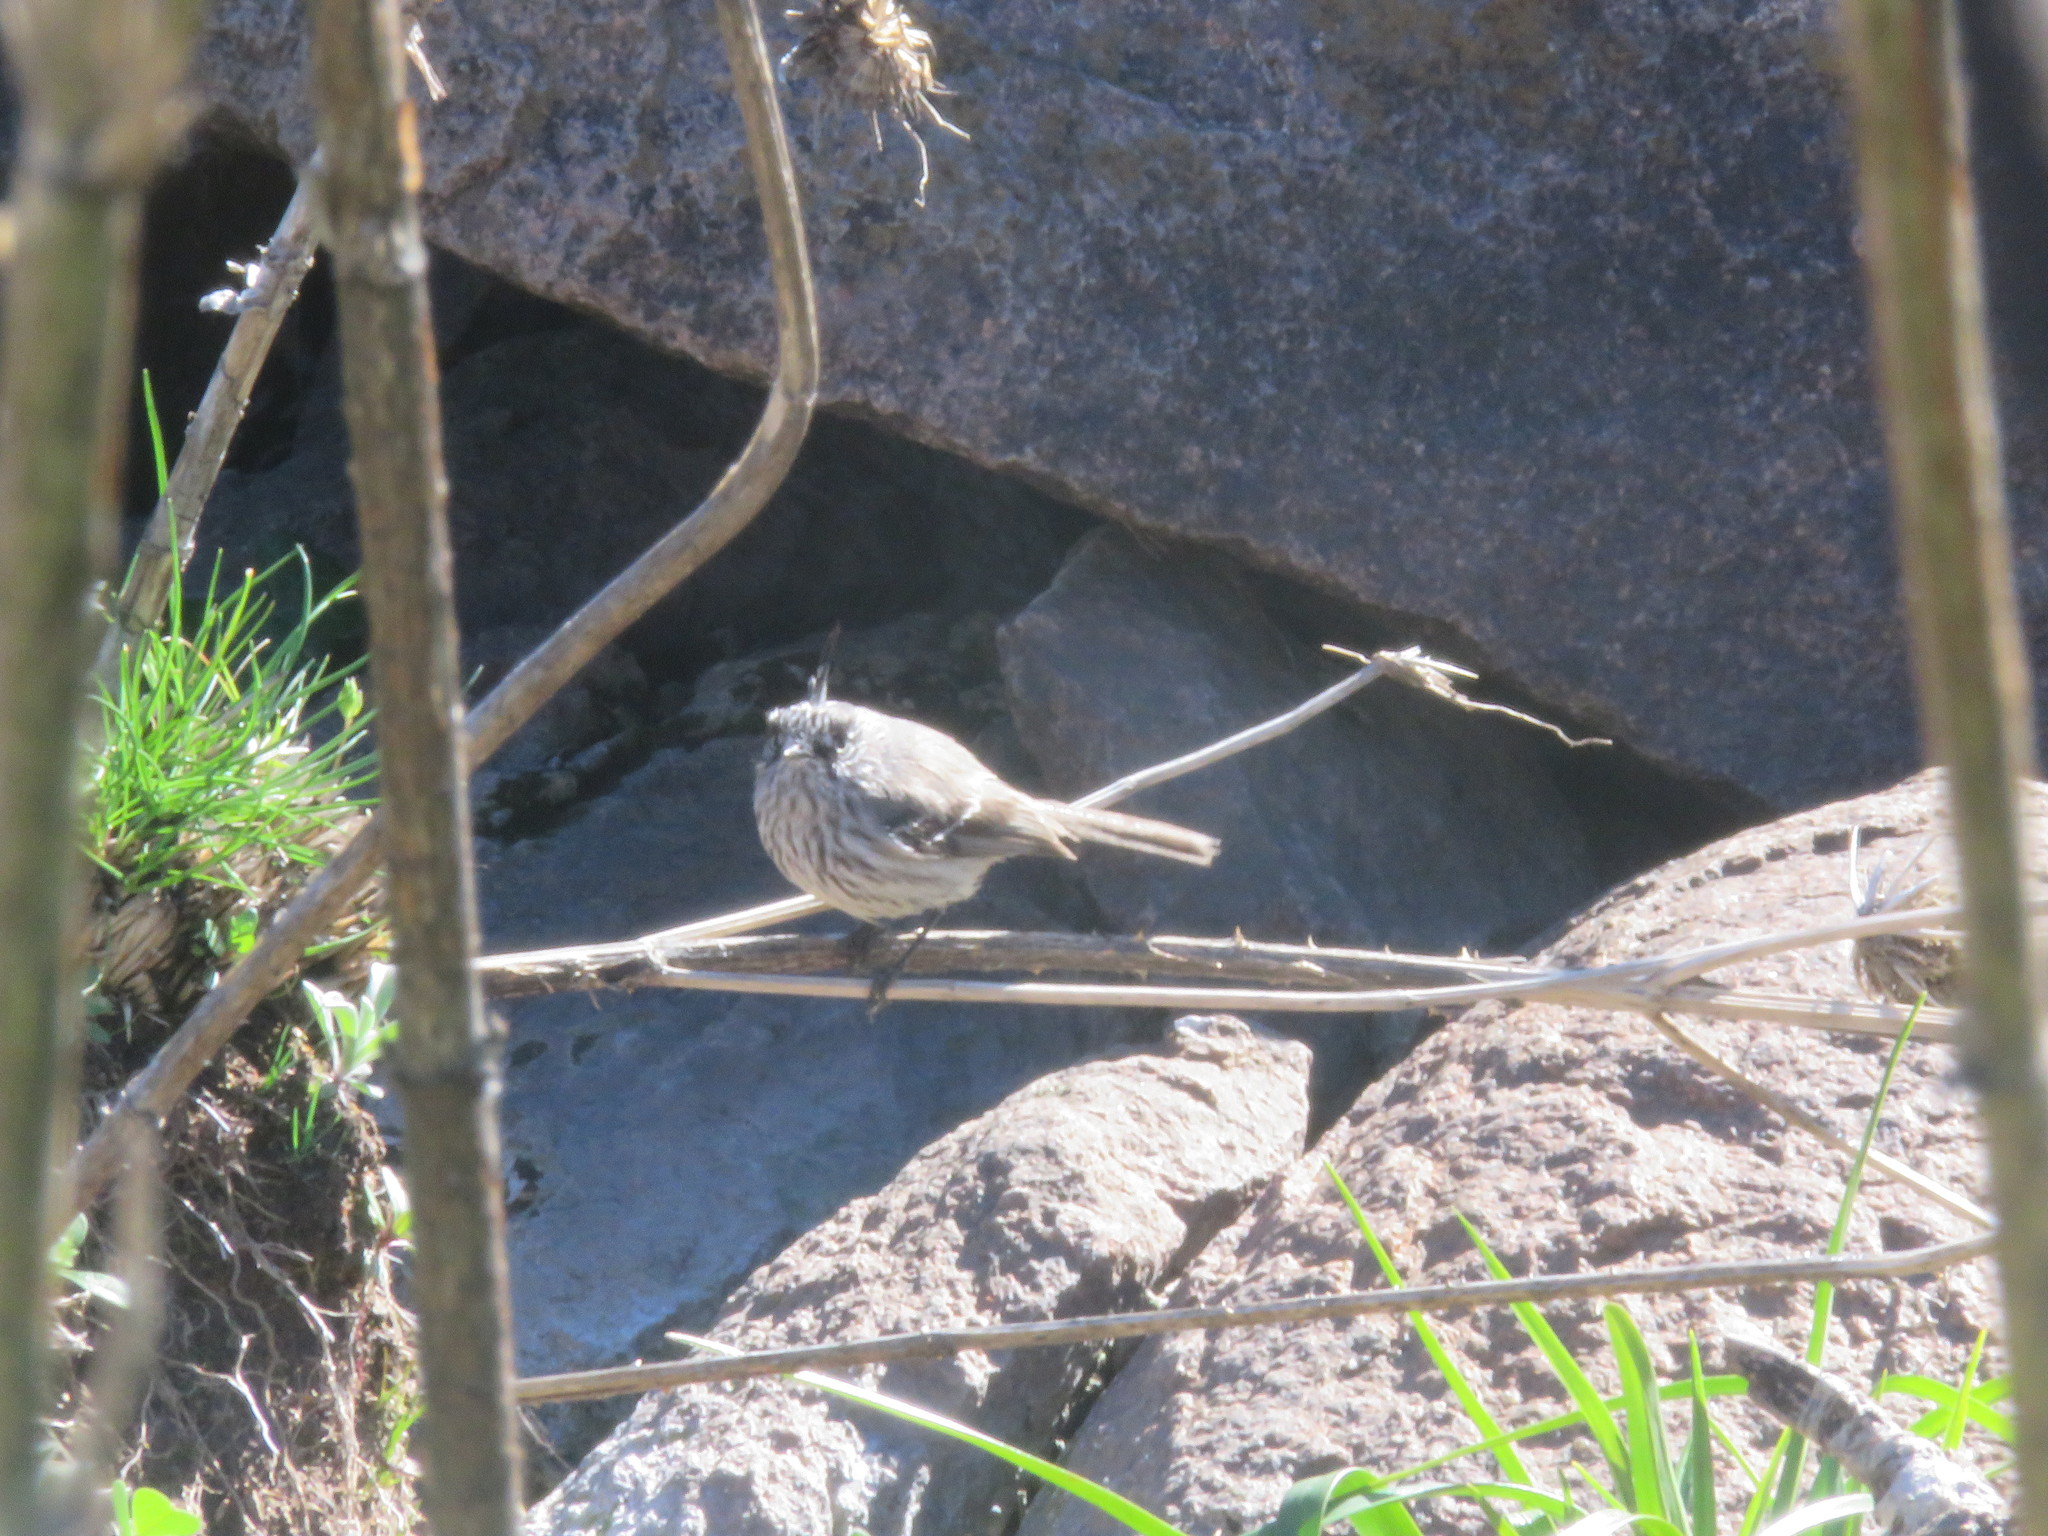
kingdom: Animalia
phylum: Chordata
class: Aves
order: Passeriformes
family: Tyrannidae
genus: Anairetes
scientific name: Anairetes parulus
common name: Tufted tit-tyrant
